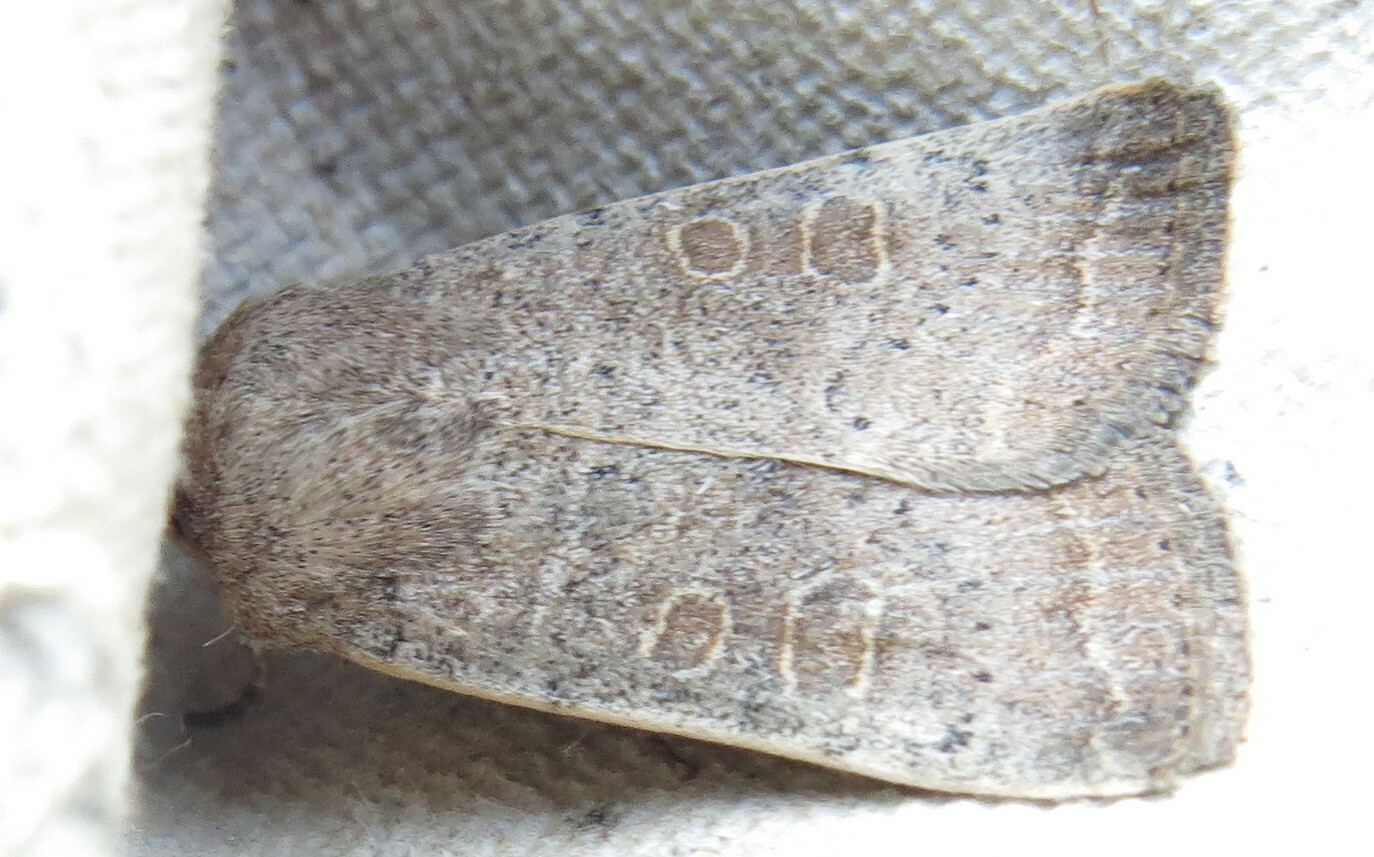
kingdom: Animalia
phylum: Arthropoda
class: Insecta
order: Lepidoptera
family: Noctuidae
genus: Hoplodrina
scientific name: Hoplodrina ambigua
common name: Vine's rustic
